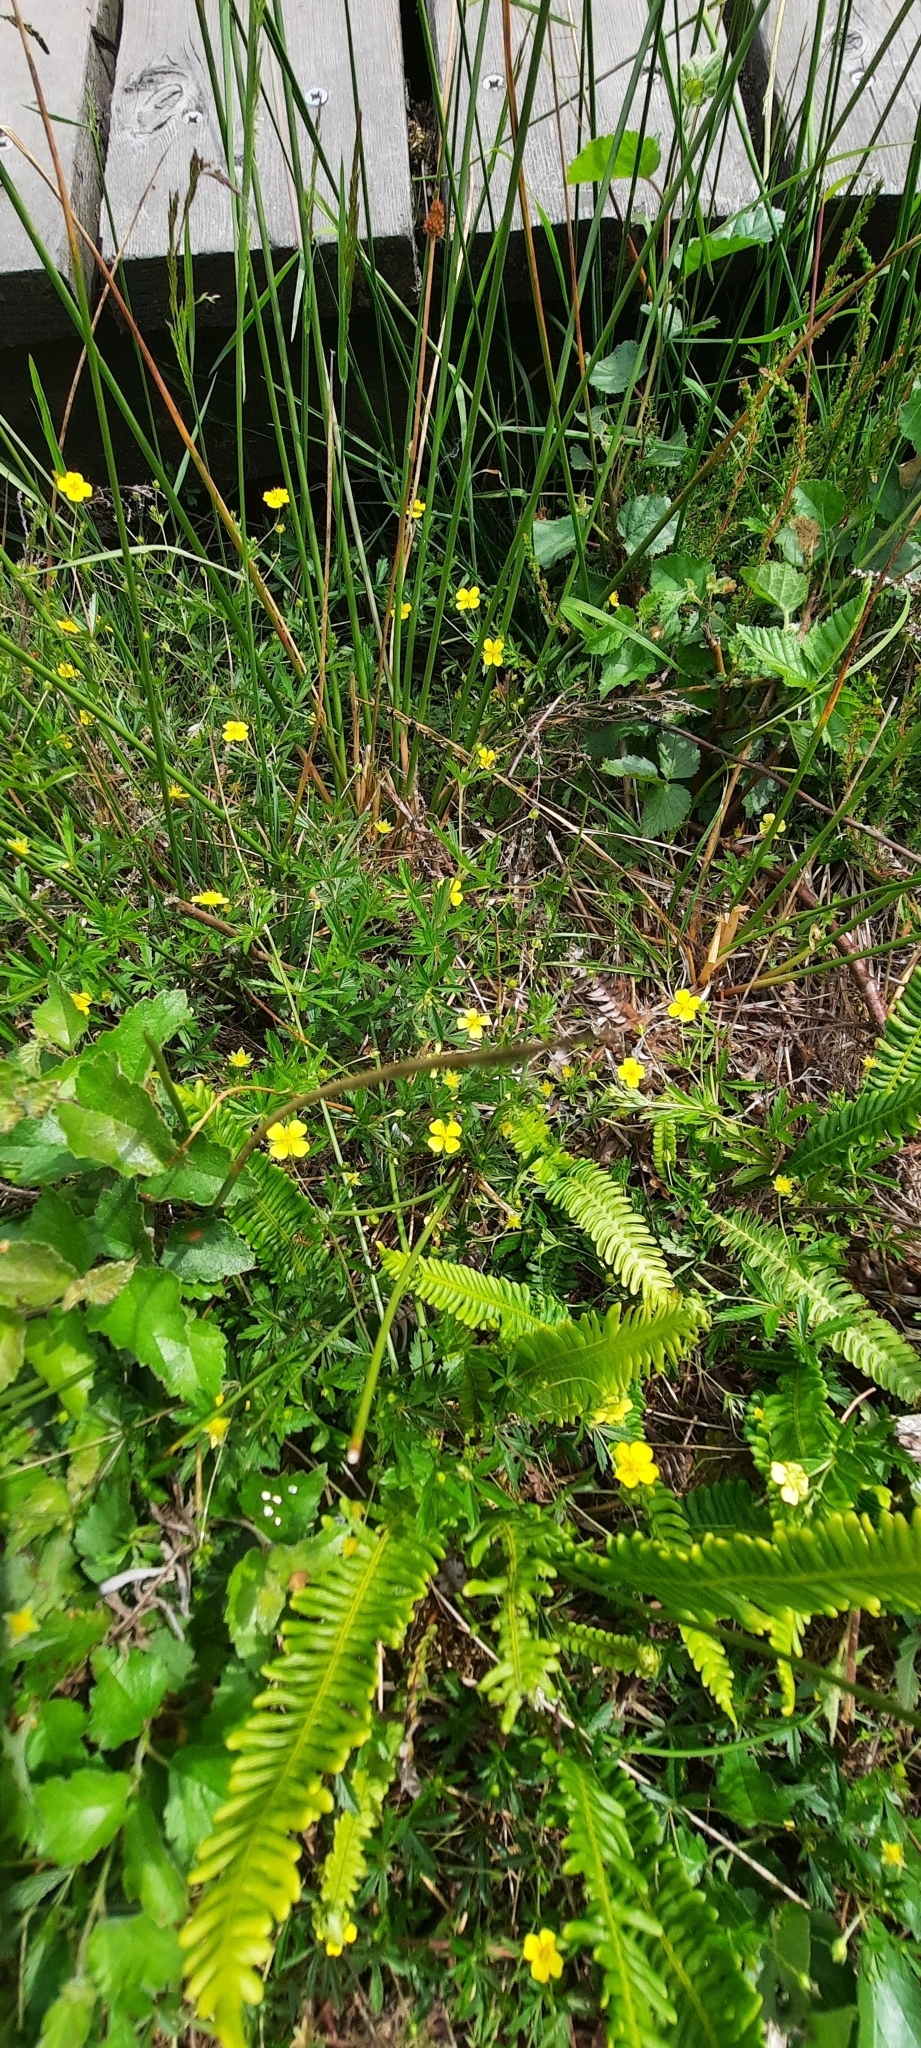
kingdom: Plantae
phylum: Tracheophyta
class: Magnoliopsida
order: Rosales
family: Rosaceae
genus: Potentilla
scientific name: Potentilla erecta
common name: Tormentil
